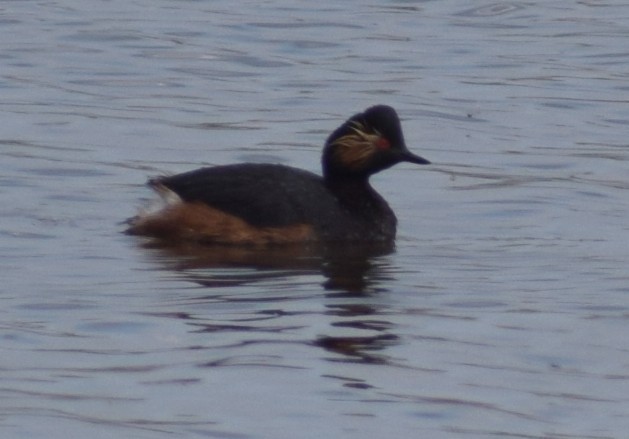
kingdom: Animalia
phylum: Chordata
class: Aves
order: Podicipediformes
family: Podicipedidae
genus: Podiceps
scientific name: Podiceps nigricollis
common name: Black-necked grebe
